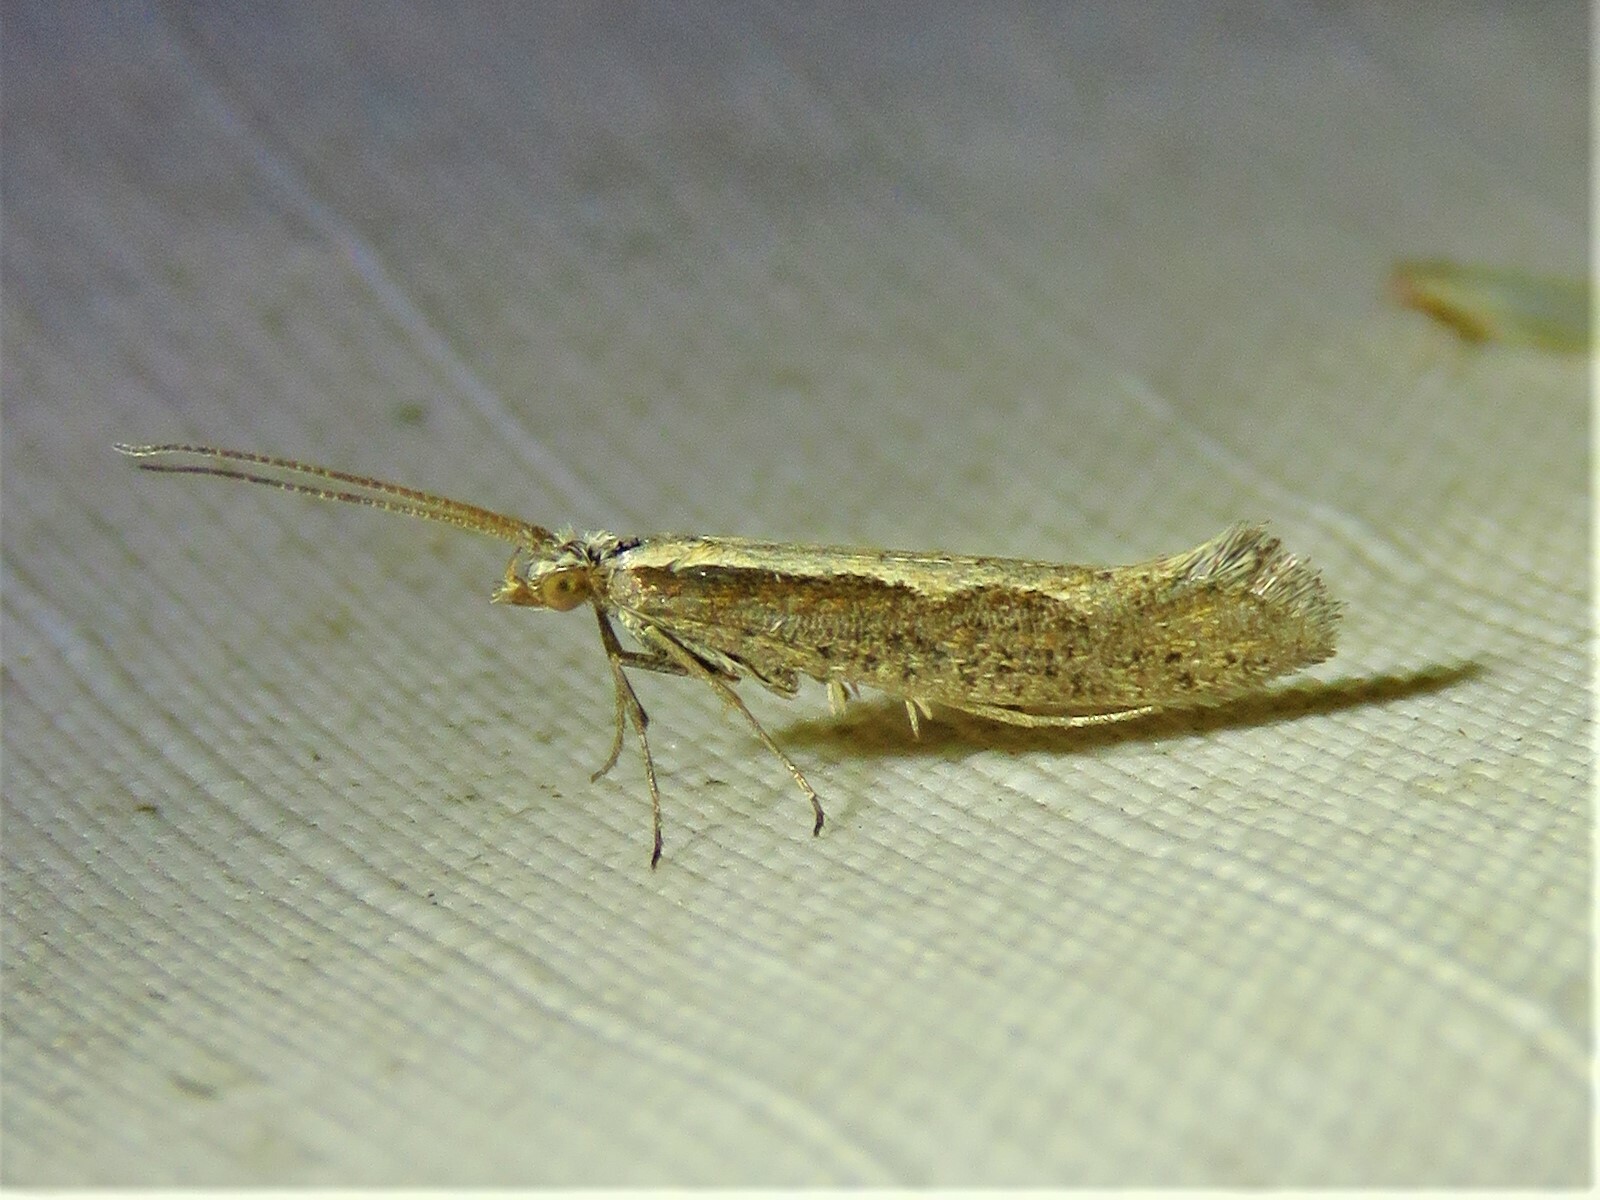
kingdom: Animalia
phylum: Arthropoda
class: Insecta
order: Lepidoptera
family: Plutellidae
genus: Plutella
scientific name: Plutella xylostella
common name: Diamond-back moth
